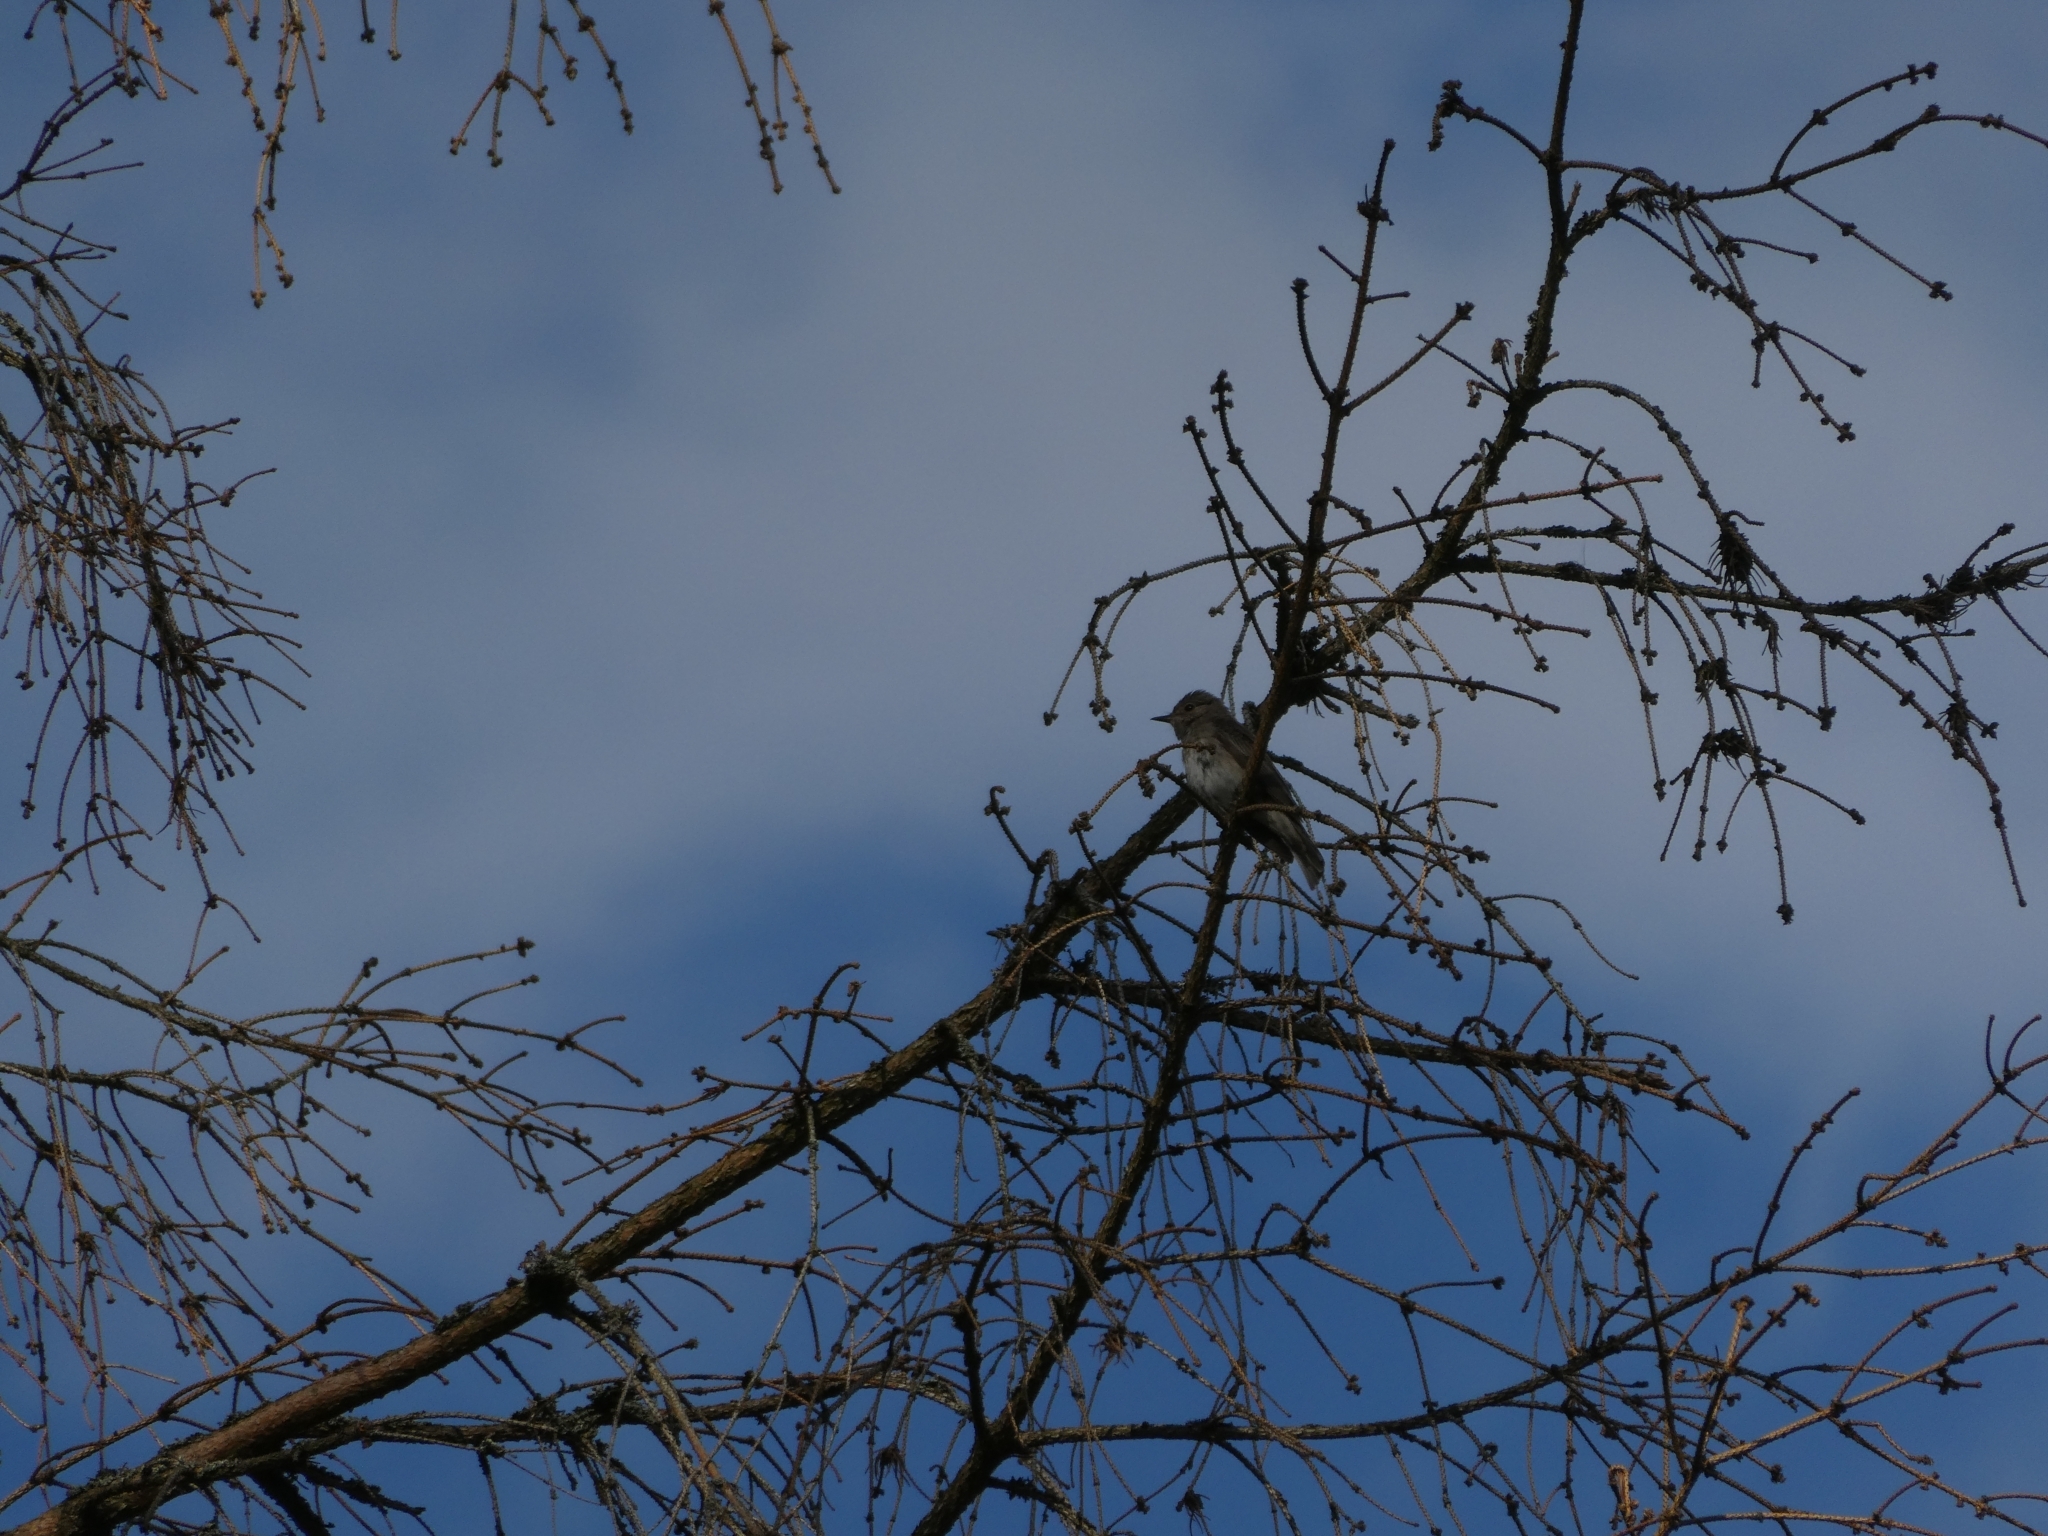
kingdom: Animalia
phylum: Chordata
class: Aves
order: Passeriformes
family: Muscicapidae
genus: Muscicapa
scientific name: Muscicapa striata
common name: Spotted flycatcher
